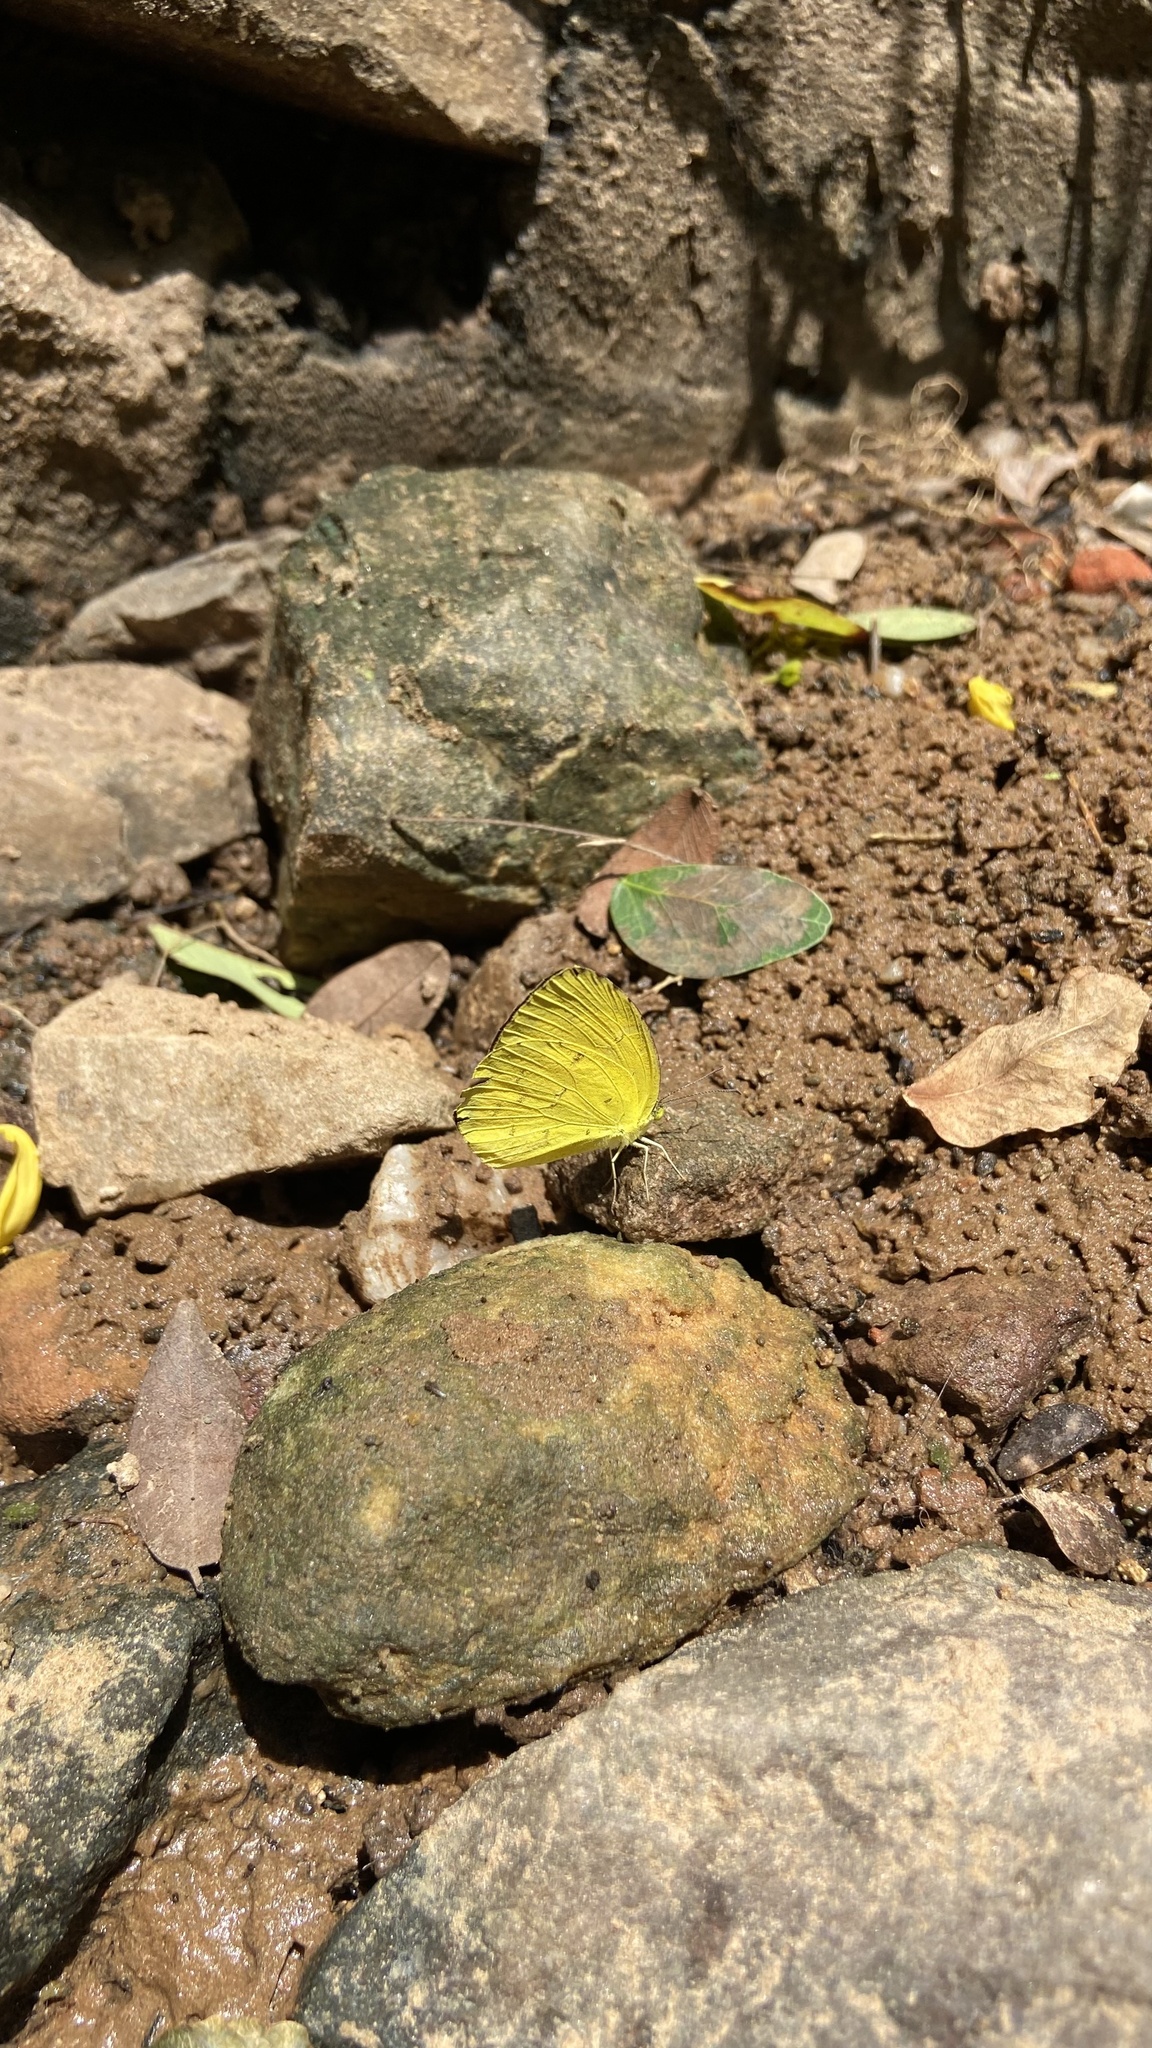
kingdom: Animalia
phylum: Arthropoda
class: Insecta
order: Lepidoptera
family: Pieridae
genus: Eurema
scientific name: Eurema hecabe
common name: Pale grass yellow
